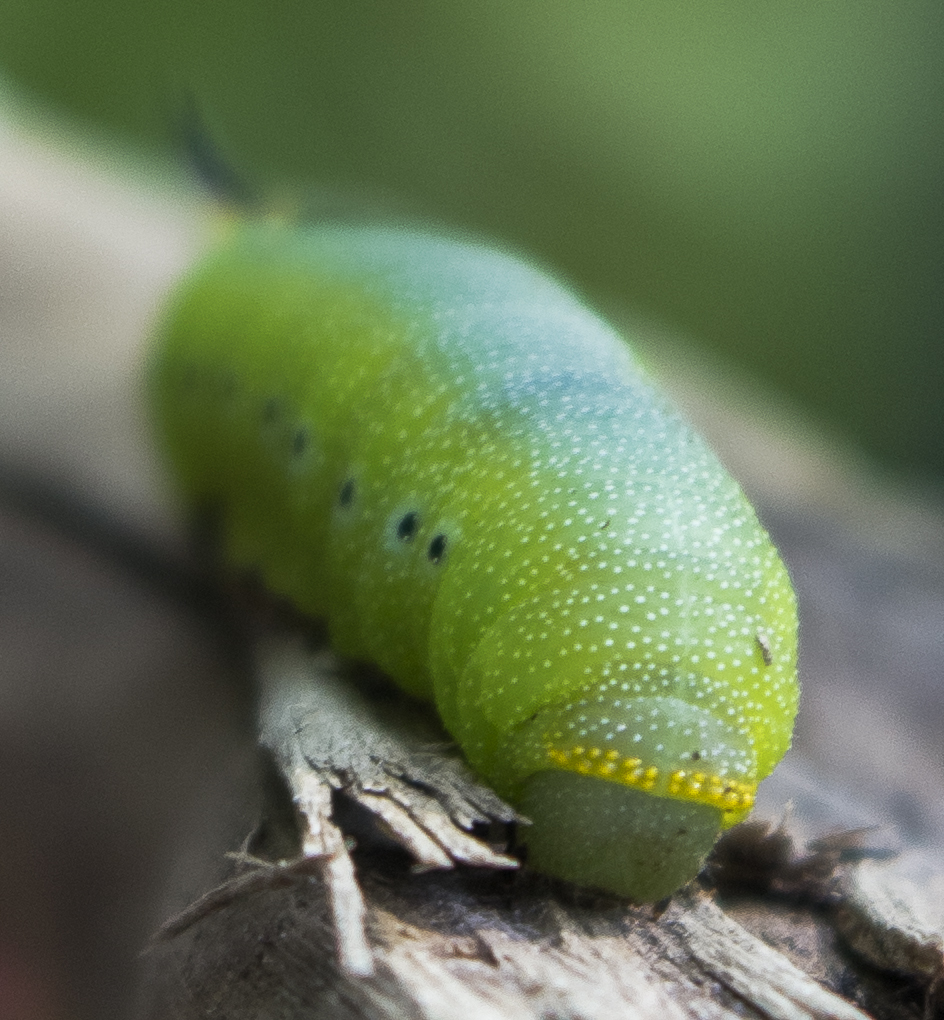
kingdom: Animalia
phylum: Arthropoda
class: Insecta
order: Lepidoptera
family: Sphingidae
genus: Hemaris
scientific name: Hemaris diffinis
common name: Bumblebee moth
